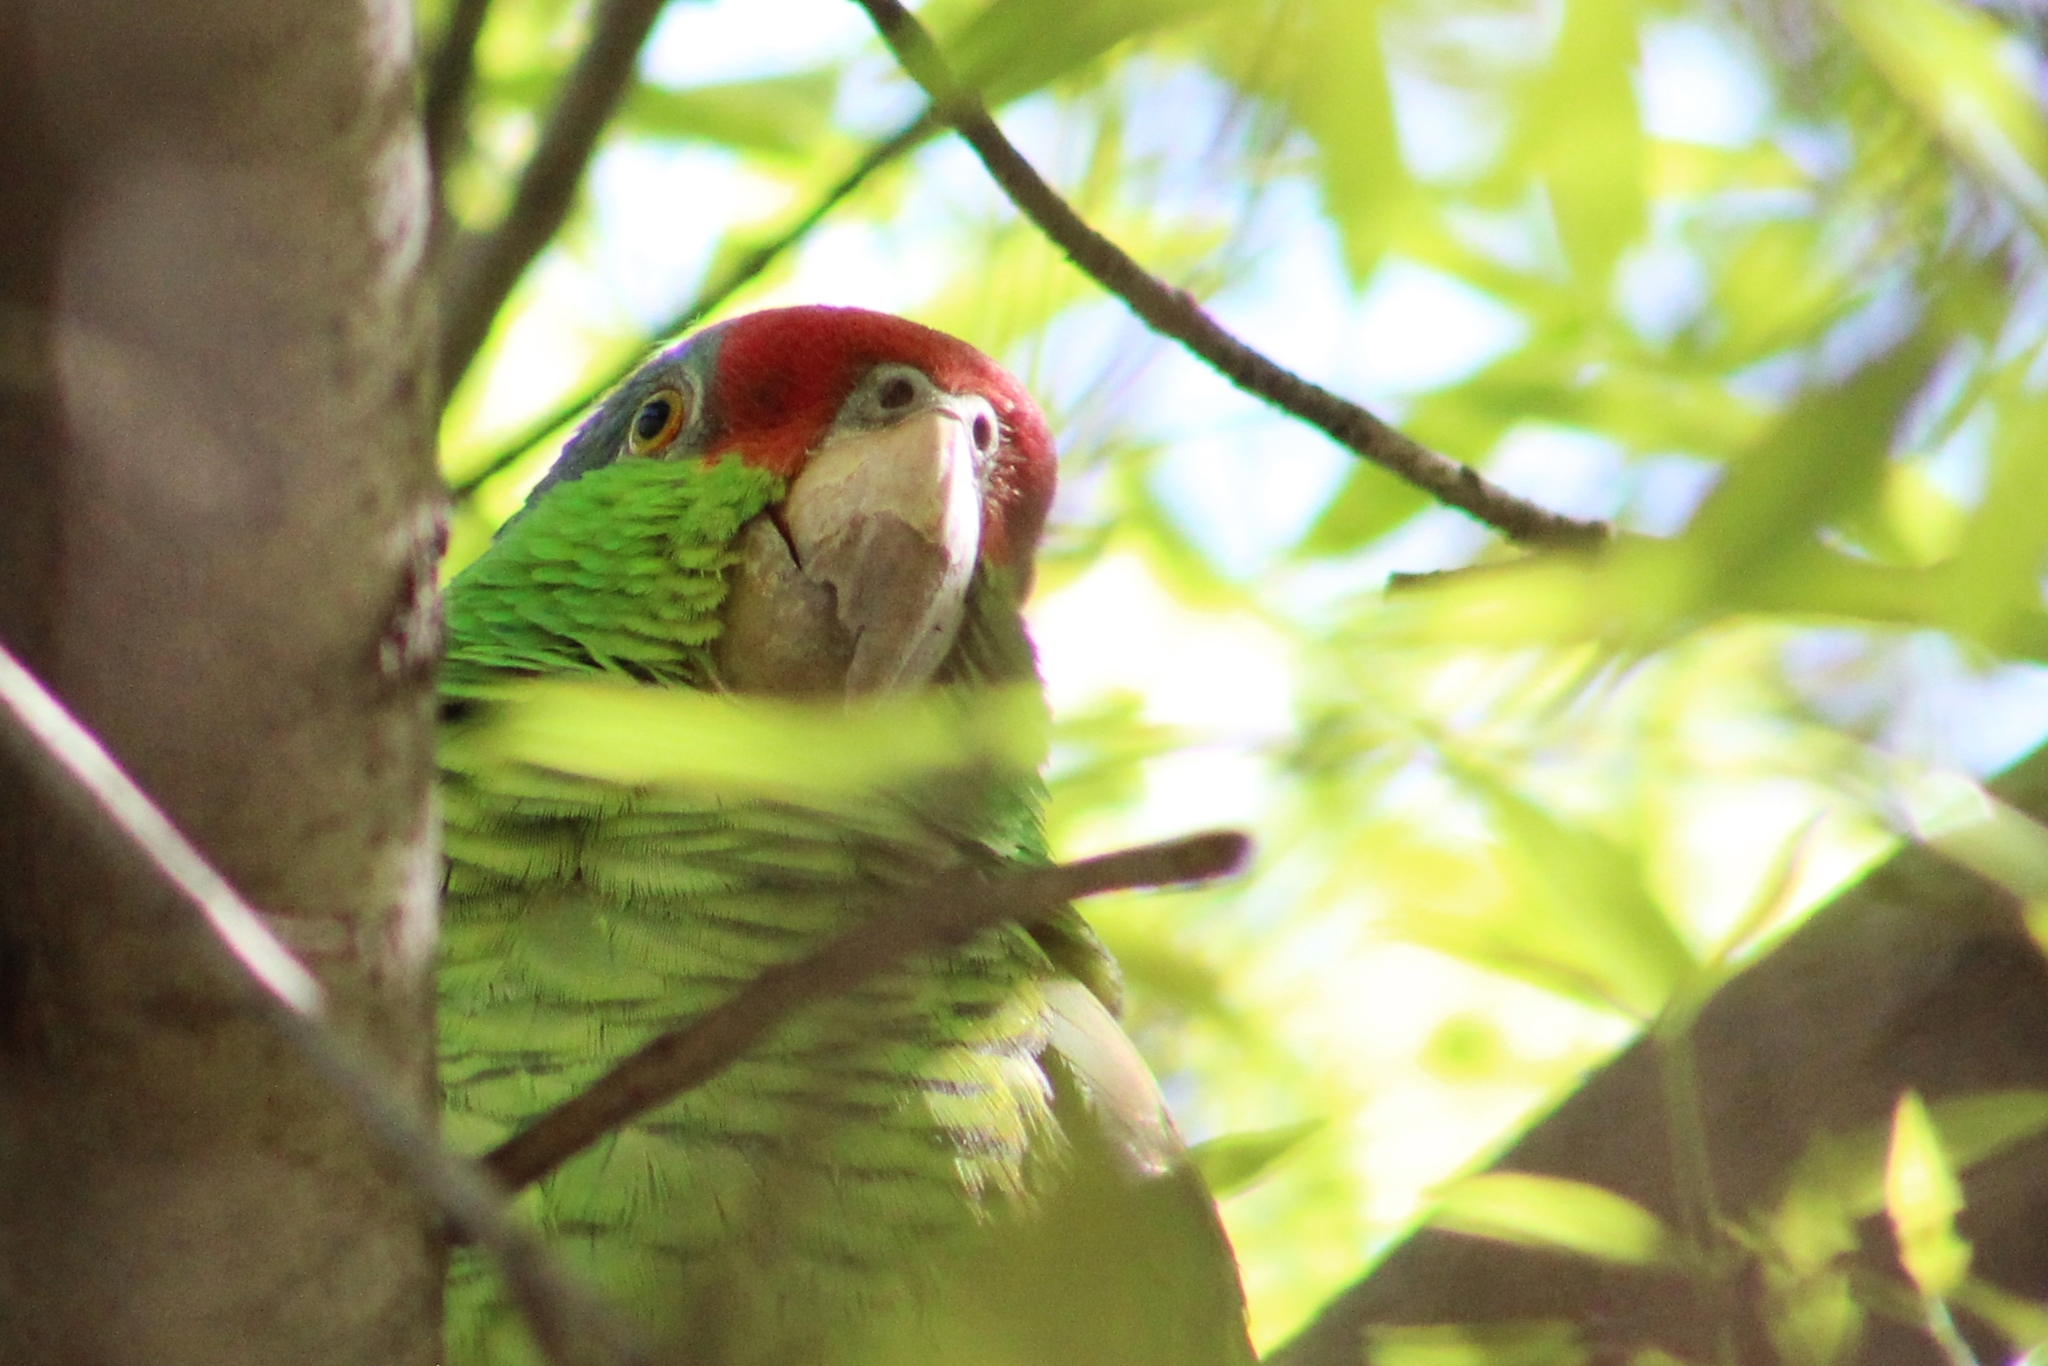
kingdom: Animalia
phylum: Chordata
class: Aves
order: Psittaciformes
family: Psittacidae
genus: Amazona
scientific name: Amazona finschi
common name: Lilac-crowned amazon
